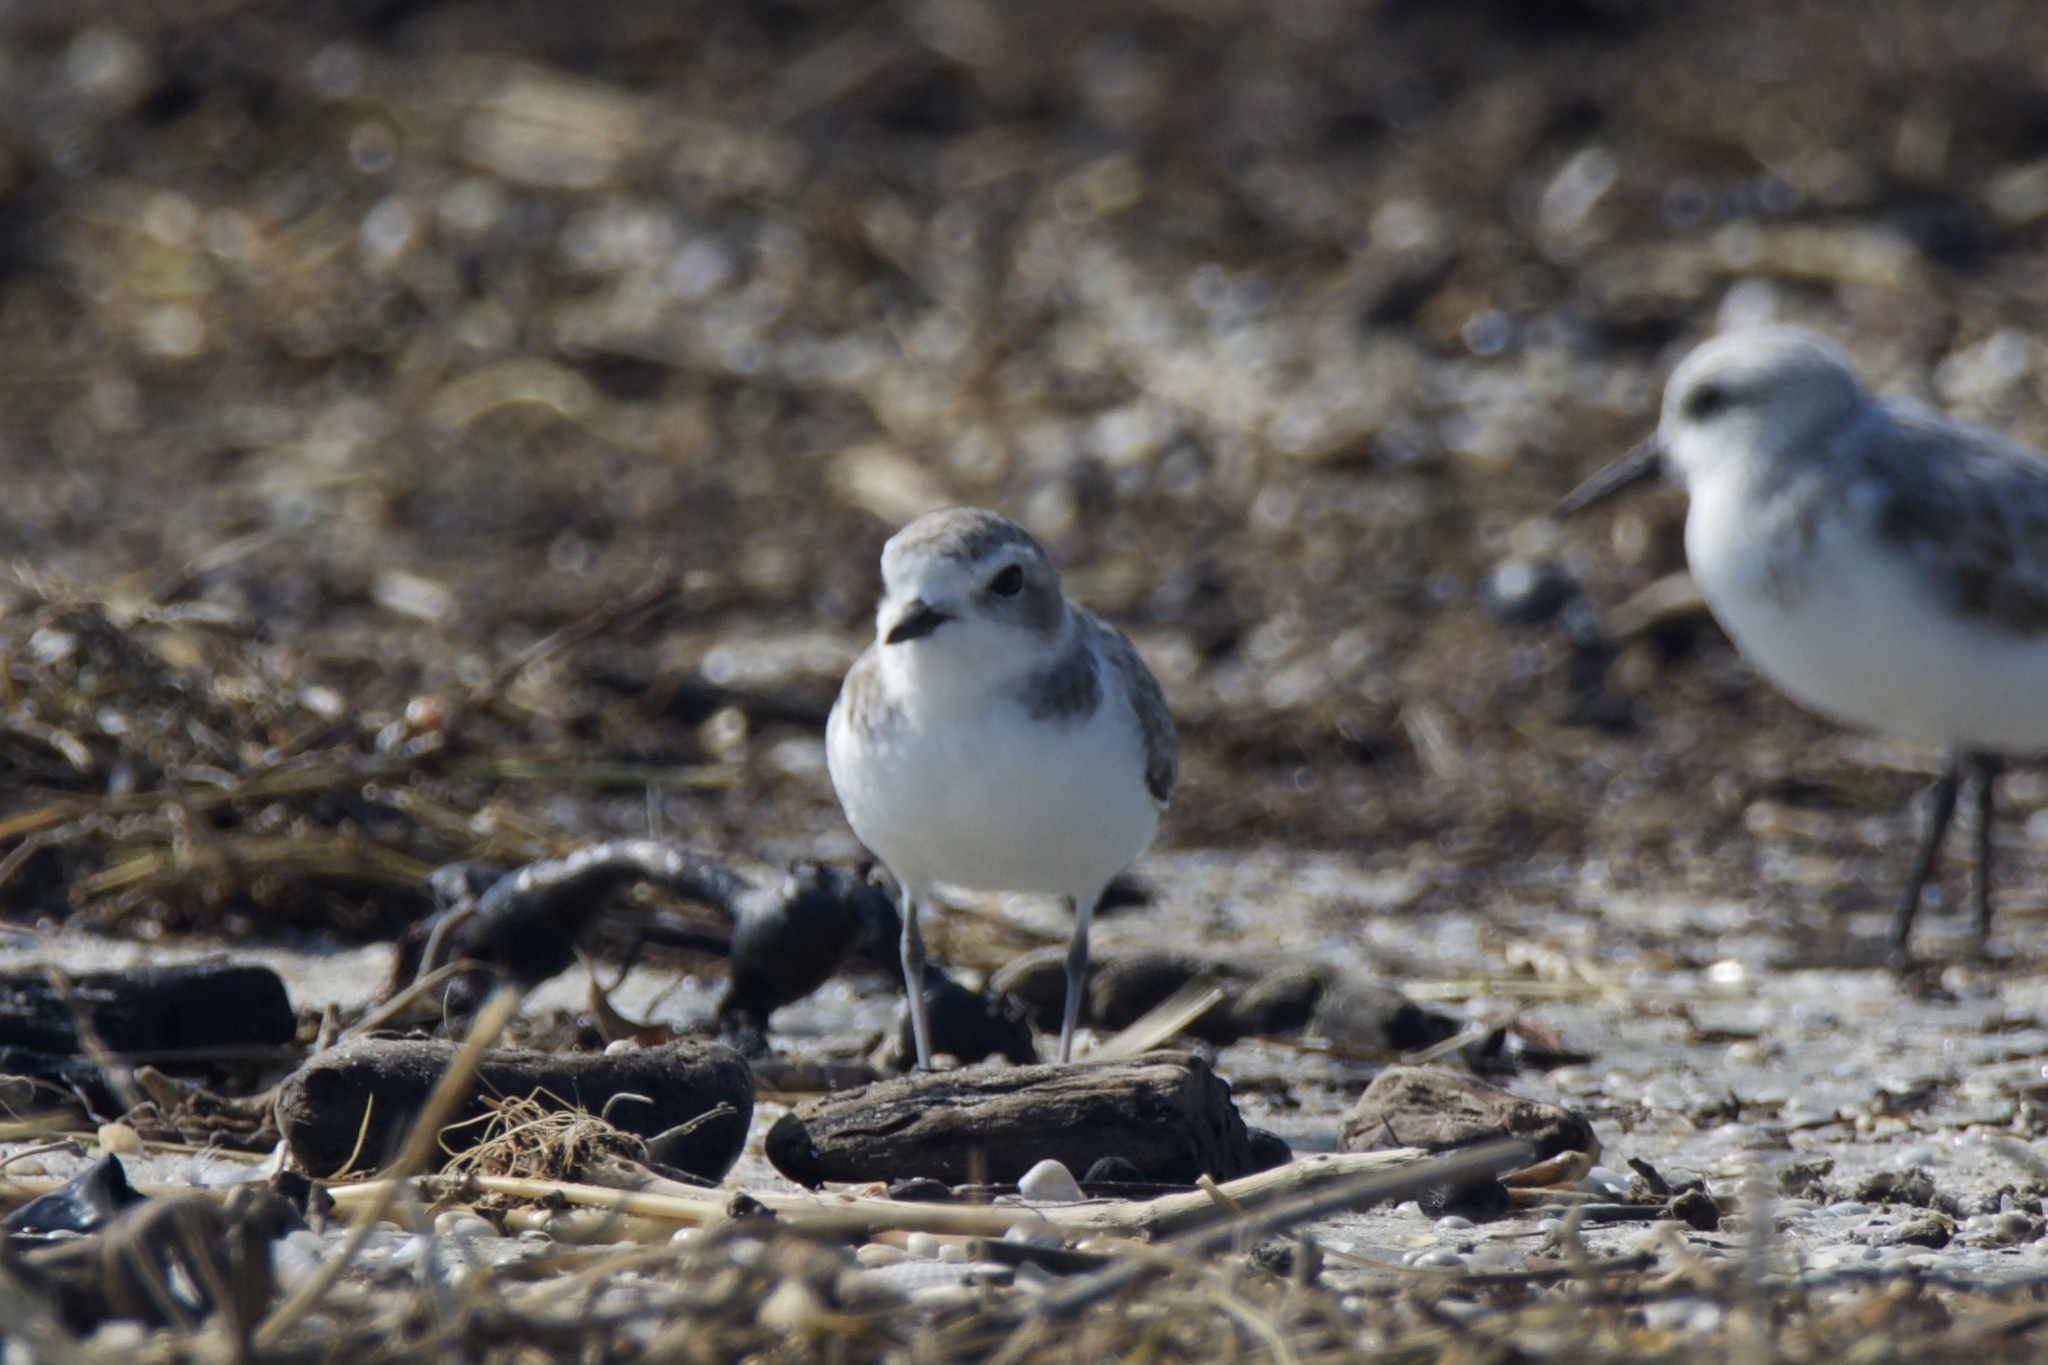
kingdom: Animalia
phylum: Chordata
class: Aves
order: Charadriiformes
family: Charadriidae
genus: Anarhynchus
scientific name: Anarhynchus
